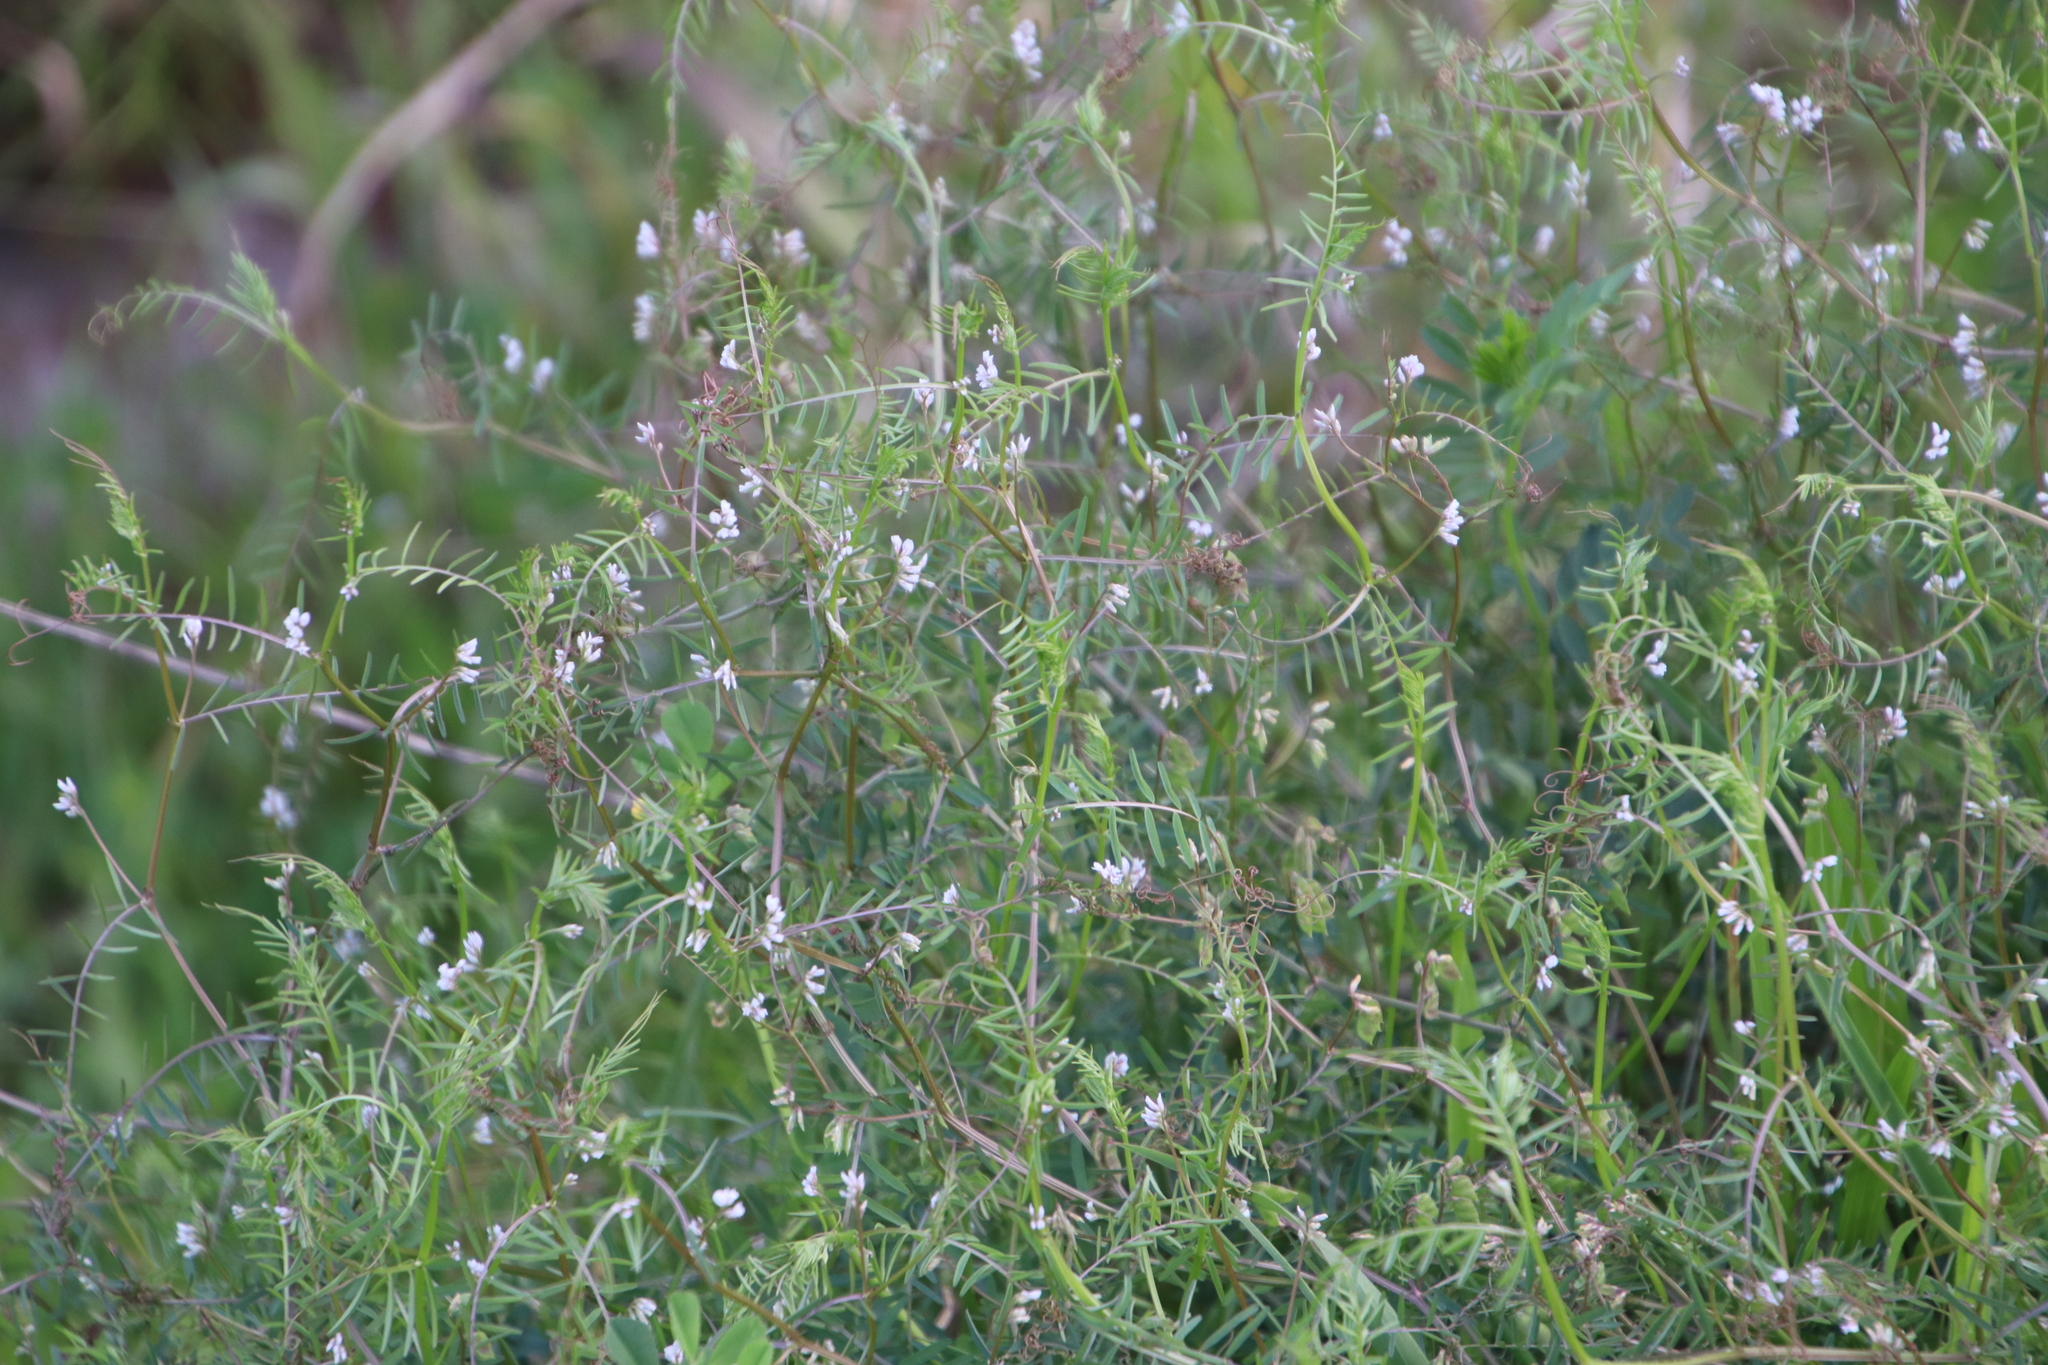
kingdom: Plantae
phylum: Tracheophyta
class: Magnoliopsida
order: Fabales
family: Fabaceae
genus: Vicia
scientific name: Vicia hirsuta
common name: Tiny vetch
